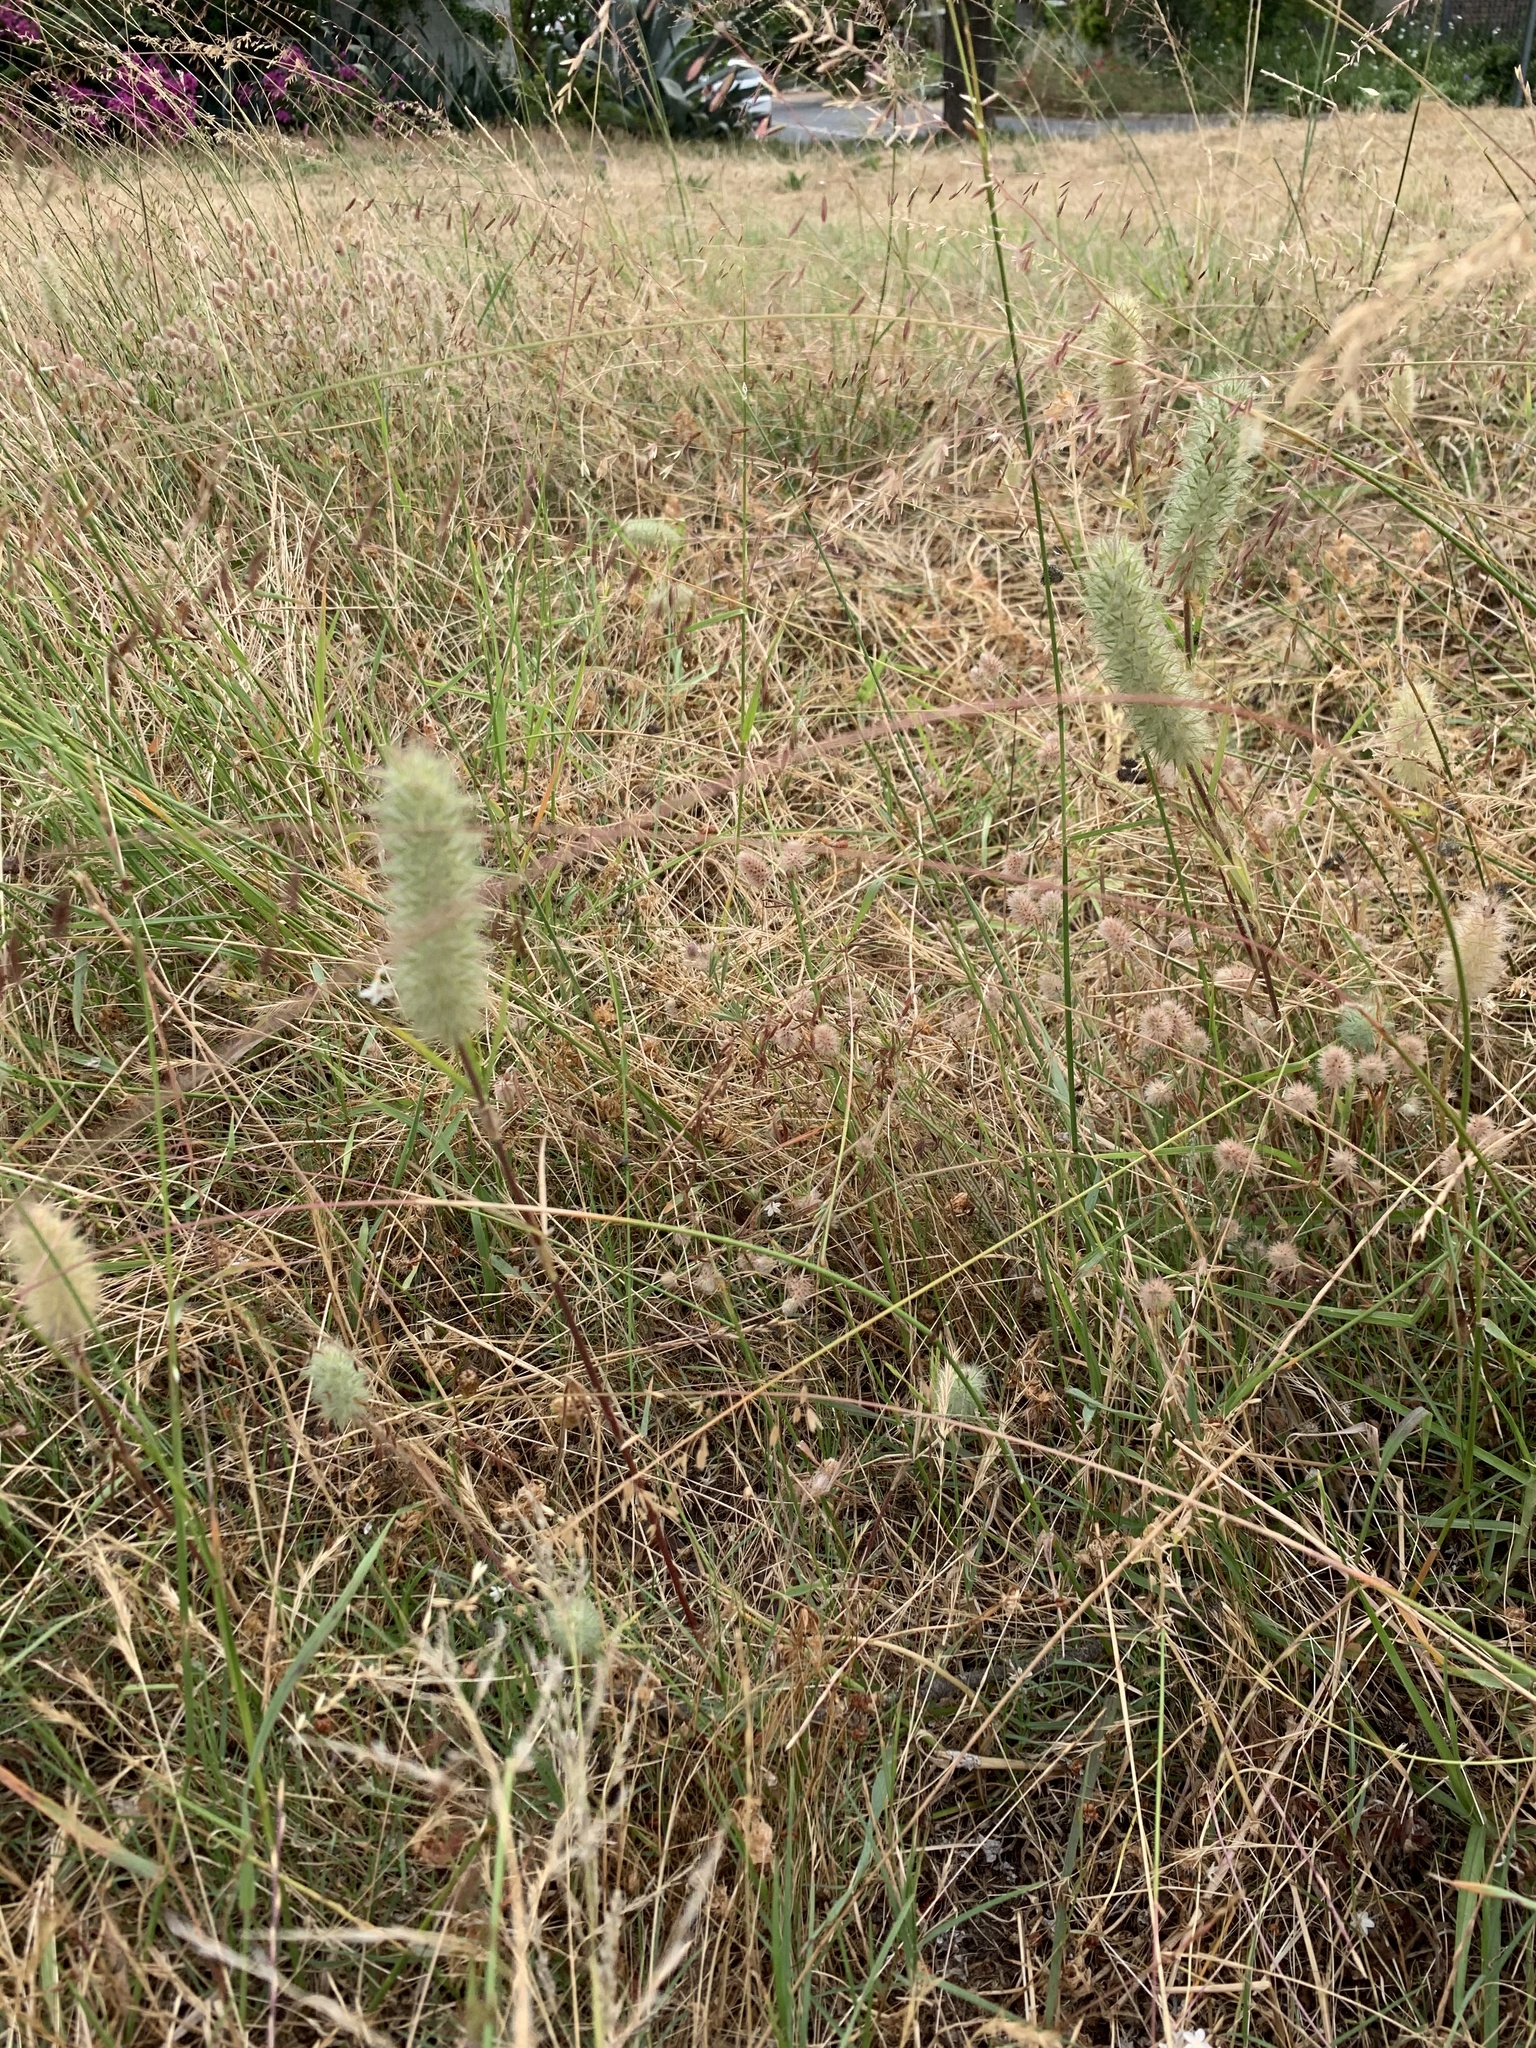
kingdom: Plantae
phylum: Tracheophyta
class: Magnoliopsida
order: Fabales
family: Fabaceae
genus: Trifolium
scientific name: Trifolium angustifolium
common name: Narrow clover
